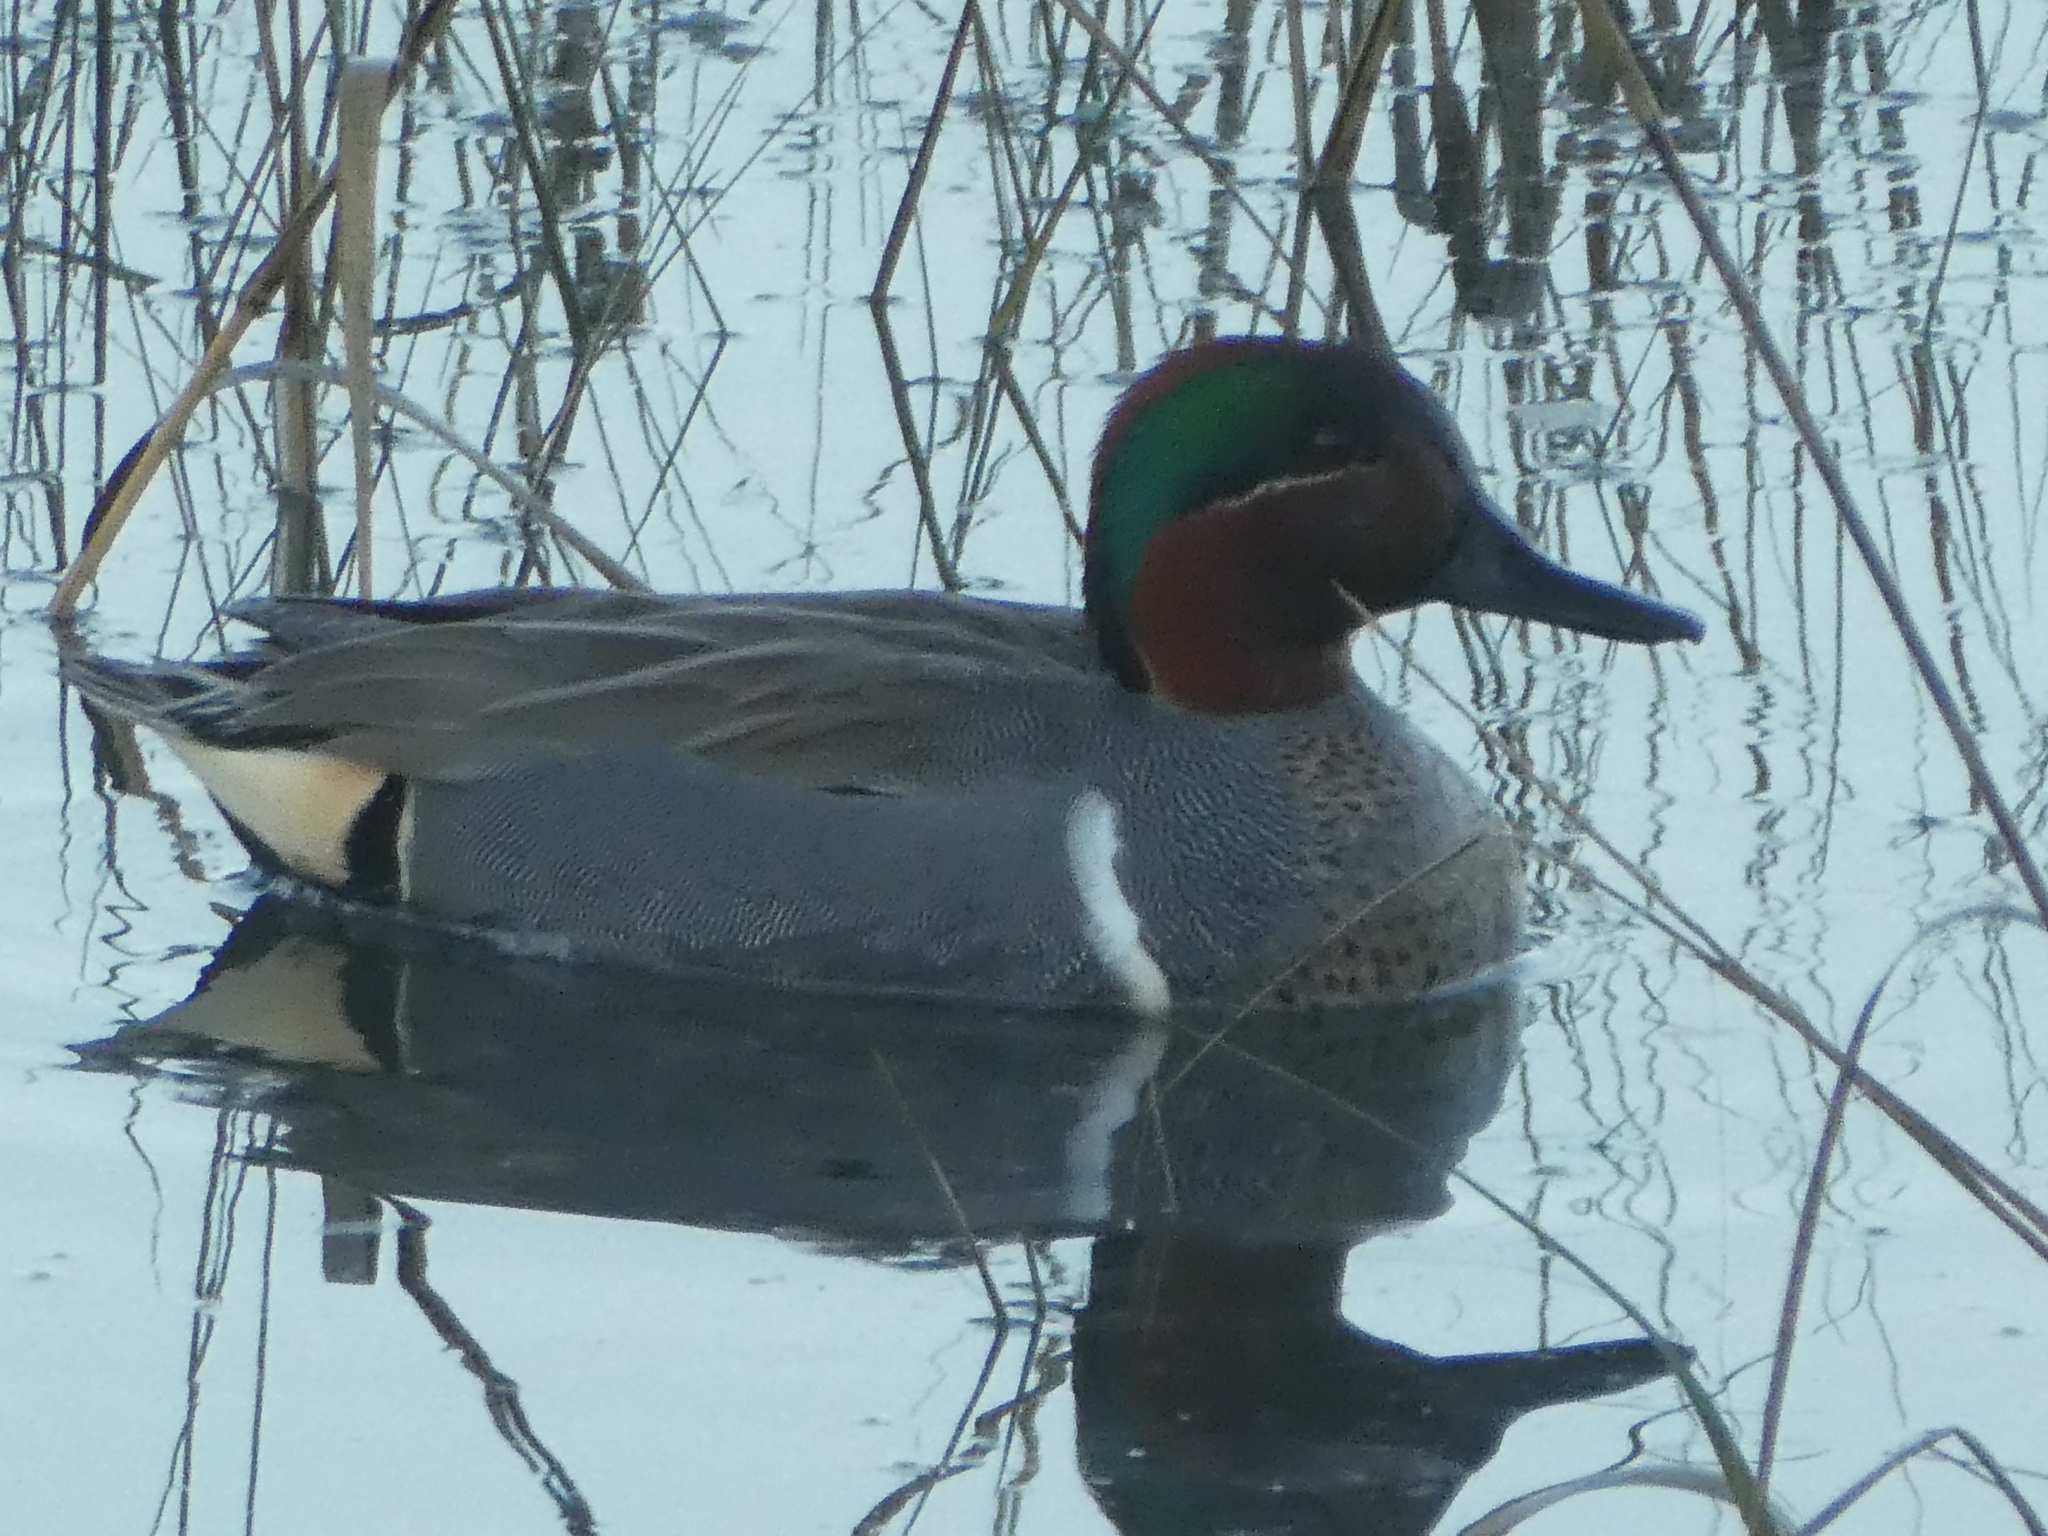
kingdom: Animalia
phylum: Chordata
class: Aves
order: Anseriformes
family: Anatidae
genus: Anas
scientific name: Anas crecca
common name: Eurasian teal
